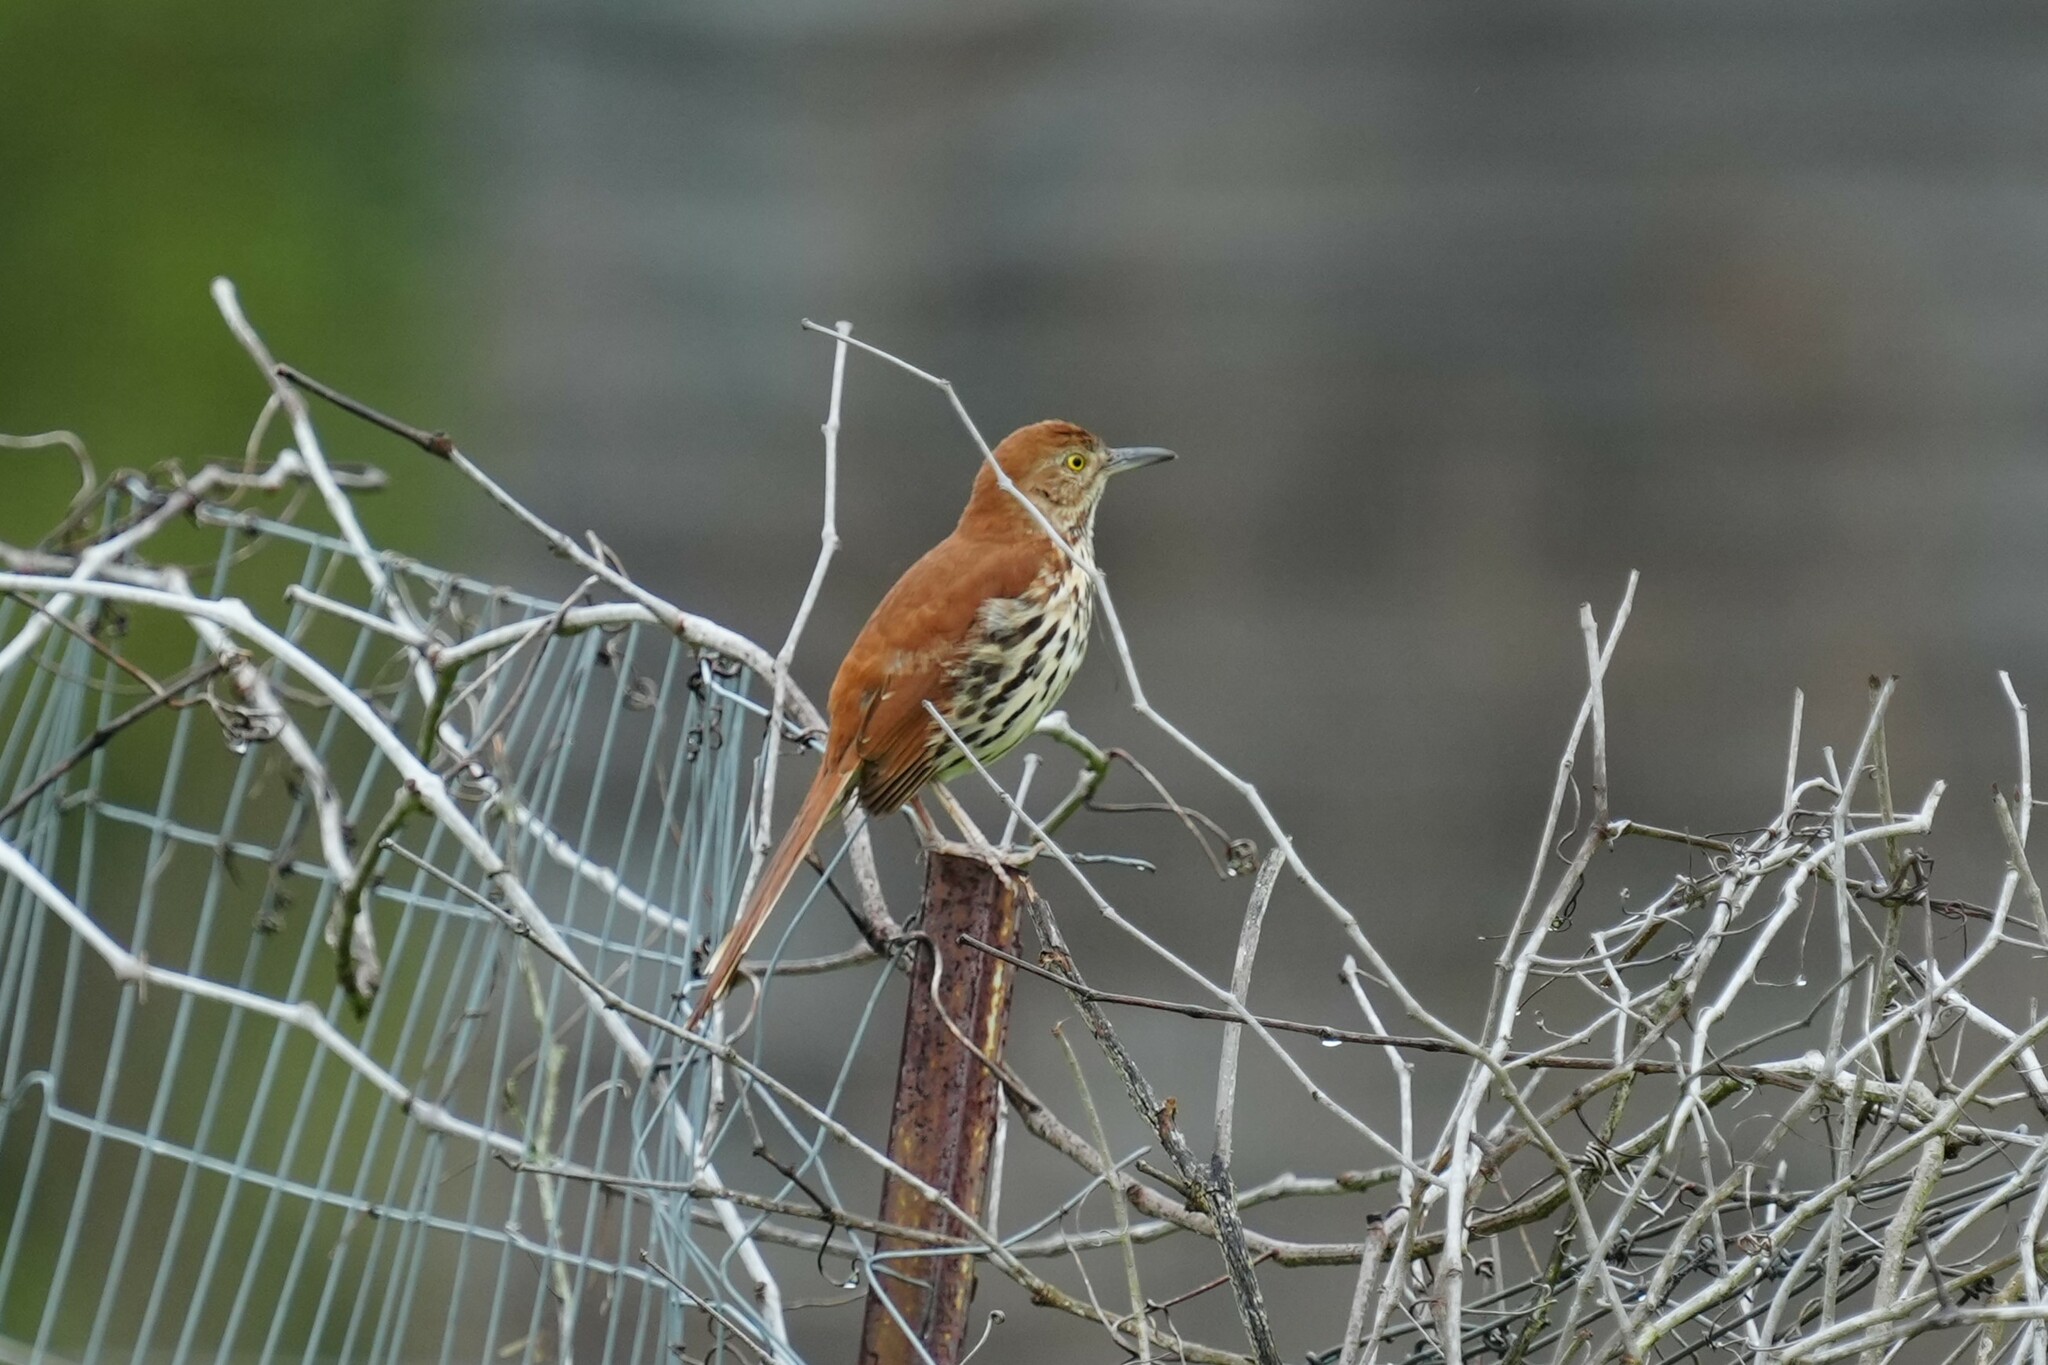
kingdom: Animalia
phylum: Chordata
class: Aves
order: Passeriformes
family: Mimidae
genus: Toxostoma
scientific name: Toxostoma rufum
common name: Brown thrasher
